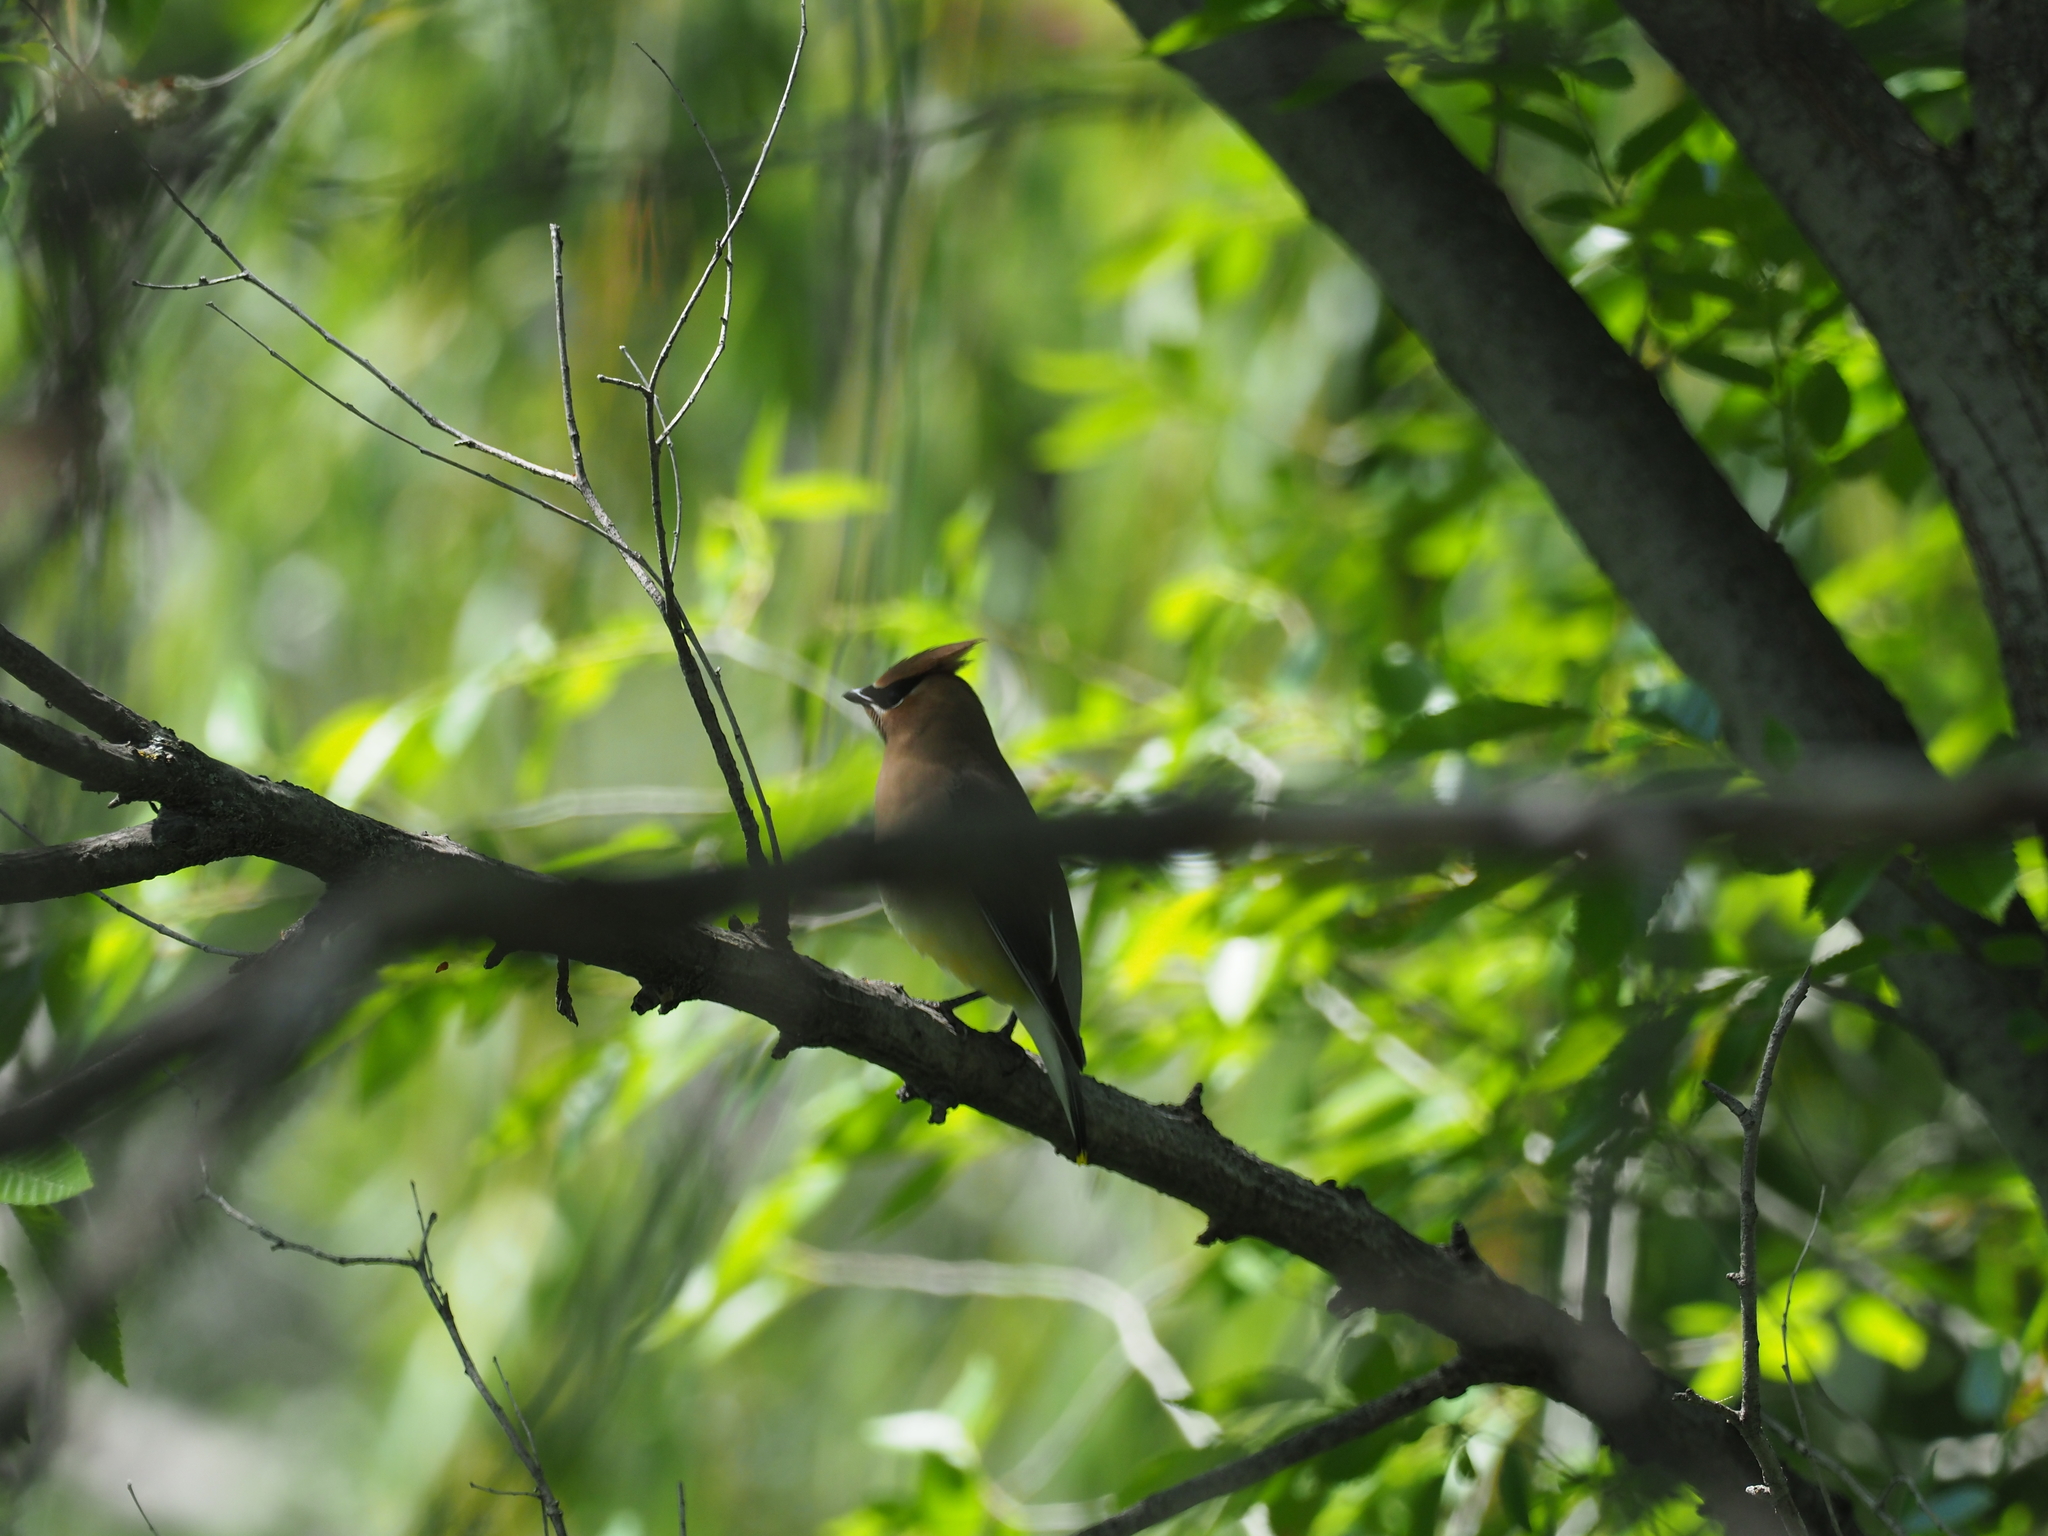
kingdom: Animalia
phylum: Chordata
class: Aves
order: Passeriformes
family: Bombycillidae
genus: Bombycilla
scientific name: Bombycilla cedrorum
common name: Cedar waxwing
